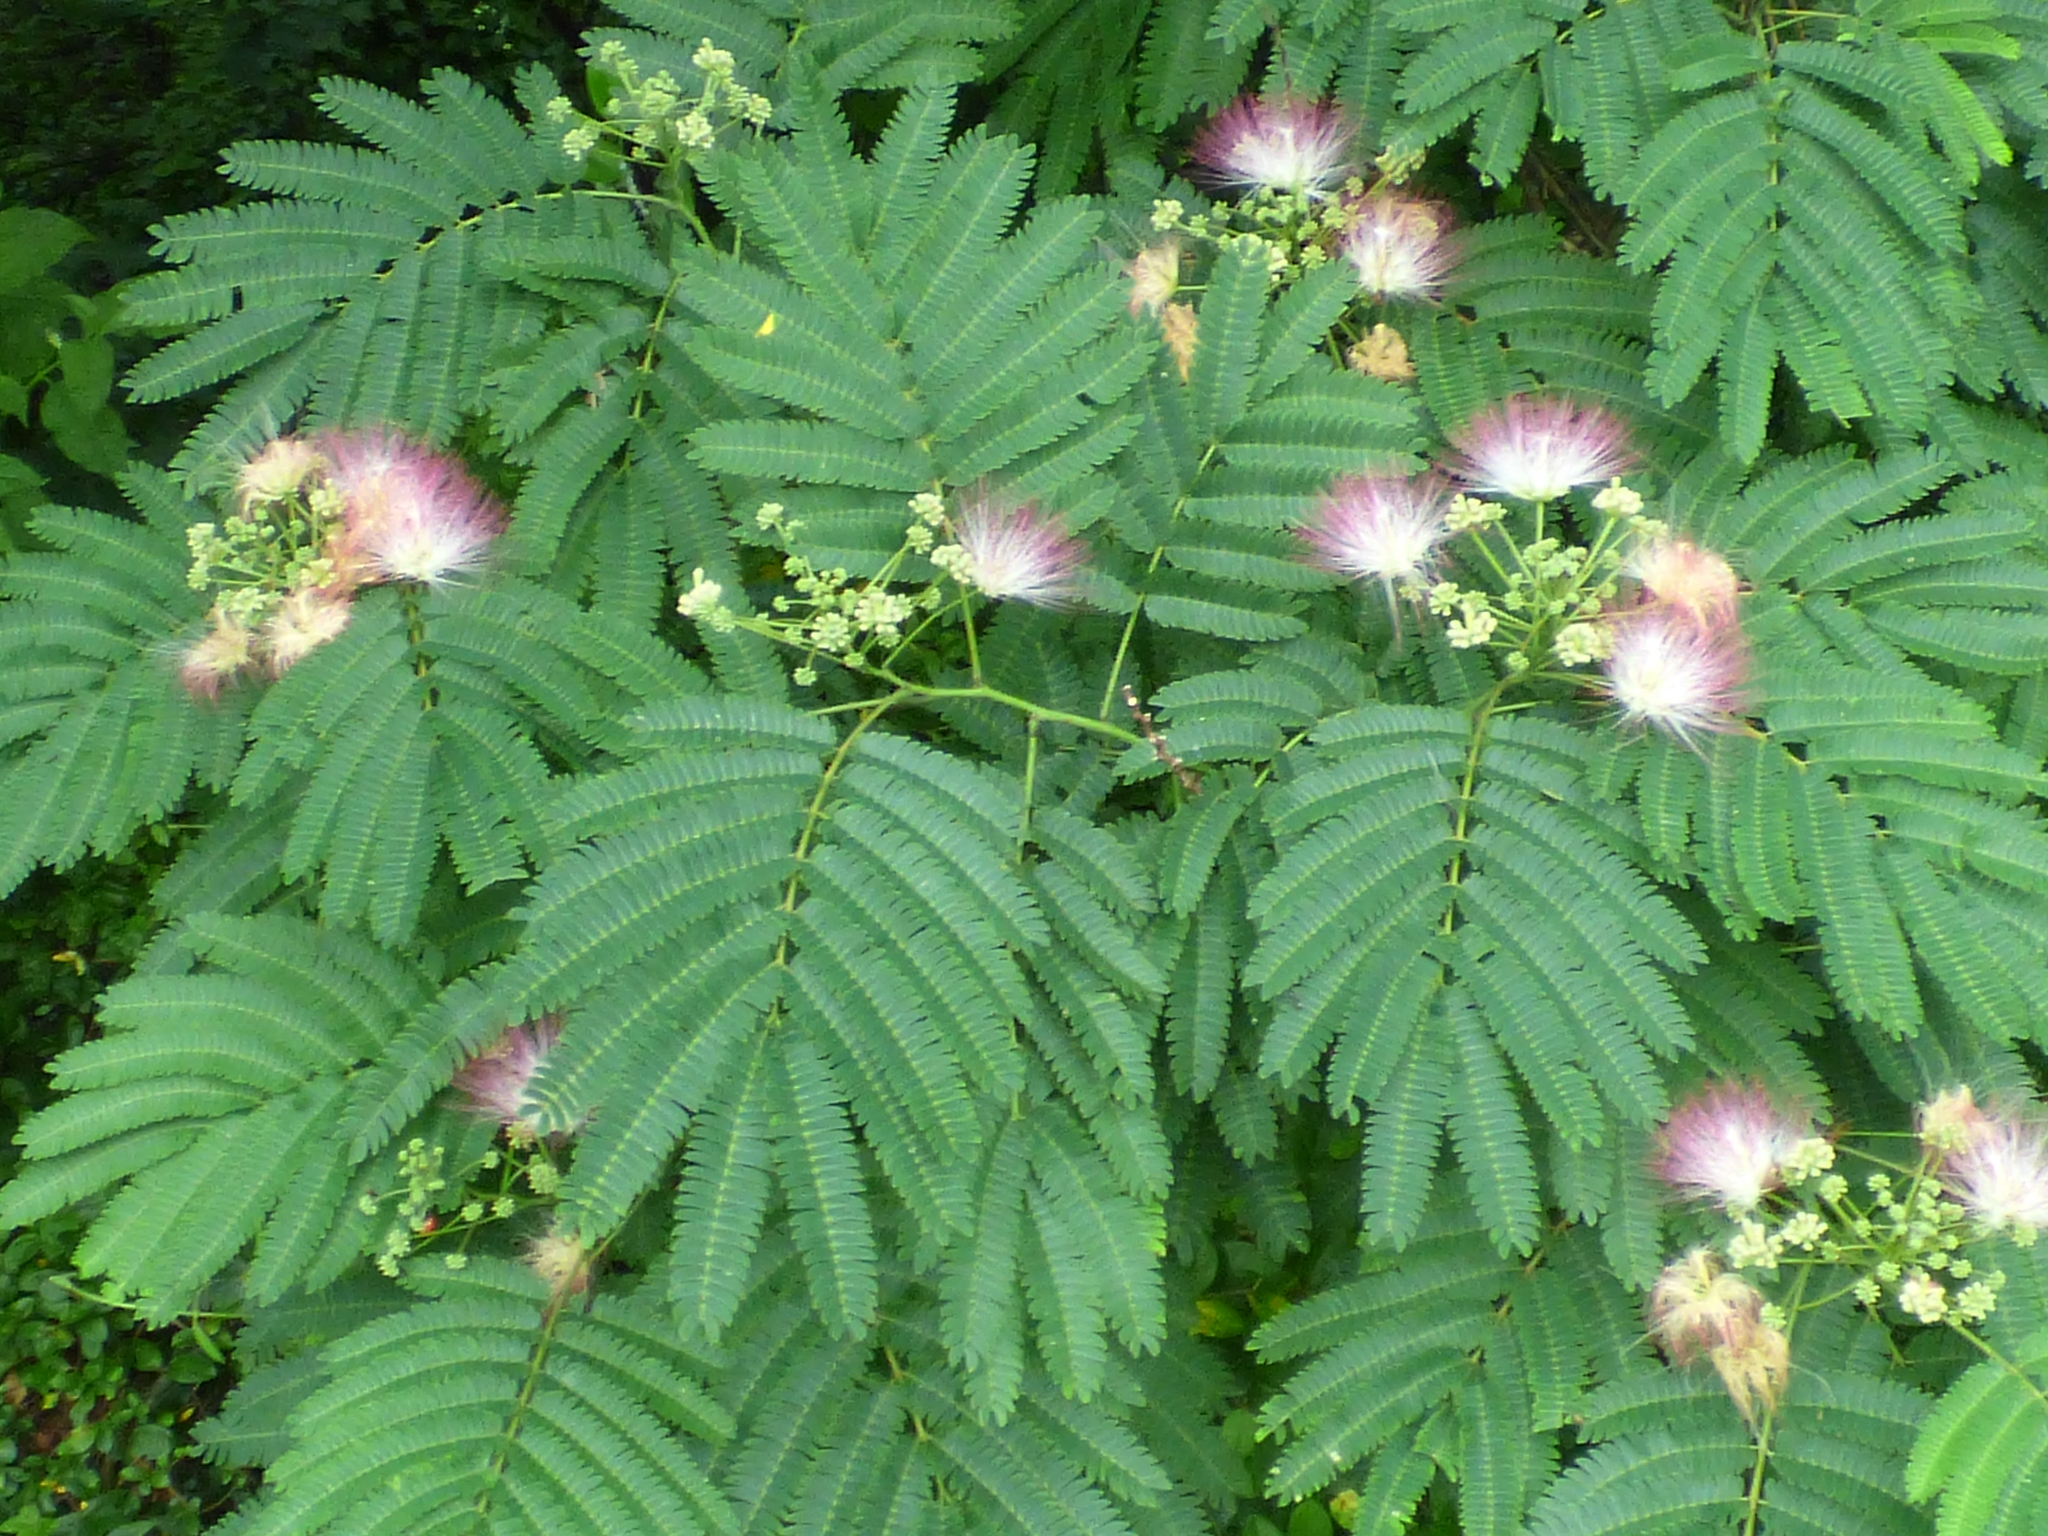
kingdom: Plantae
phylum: Tracheophyta
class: Magnoliopsida
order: Fabales
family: Fabaceae
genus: Albizia
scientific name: Albizia julibrissin
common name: Silktree
